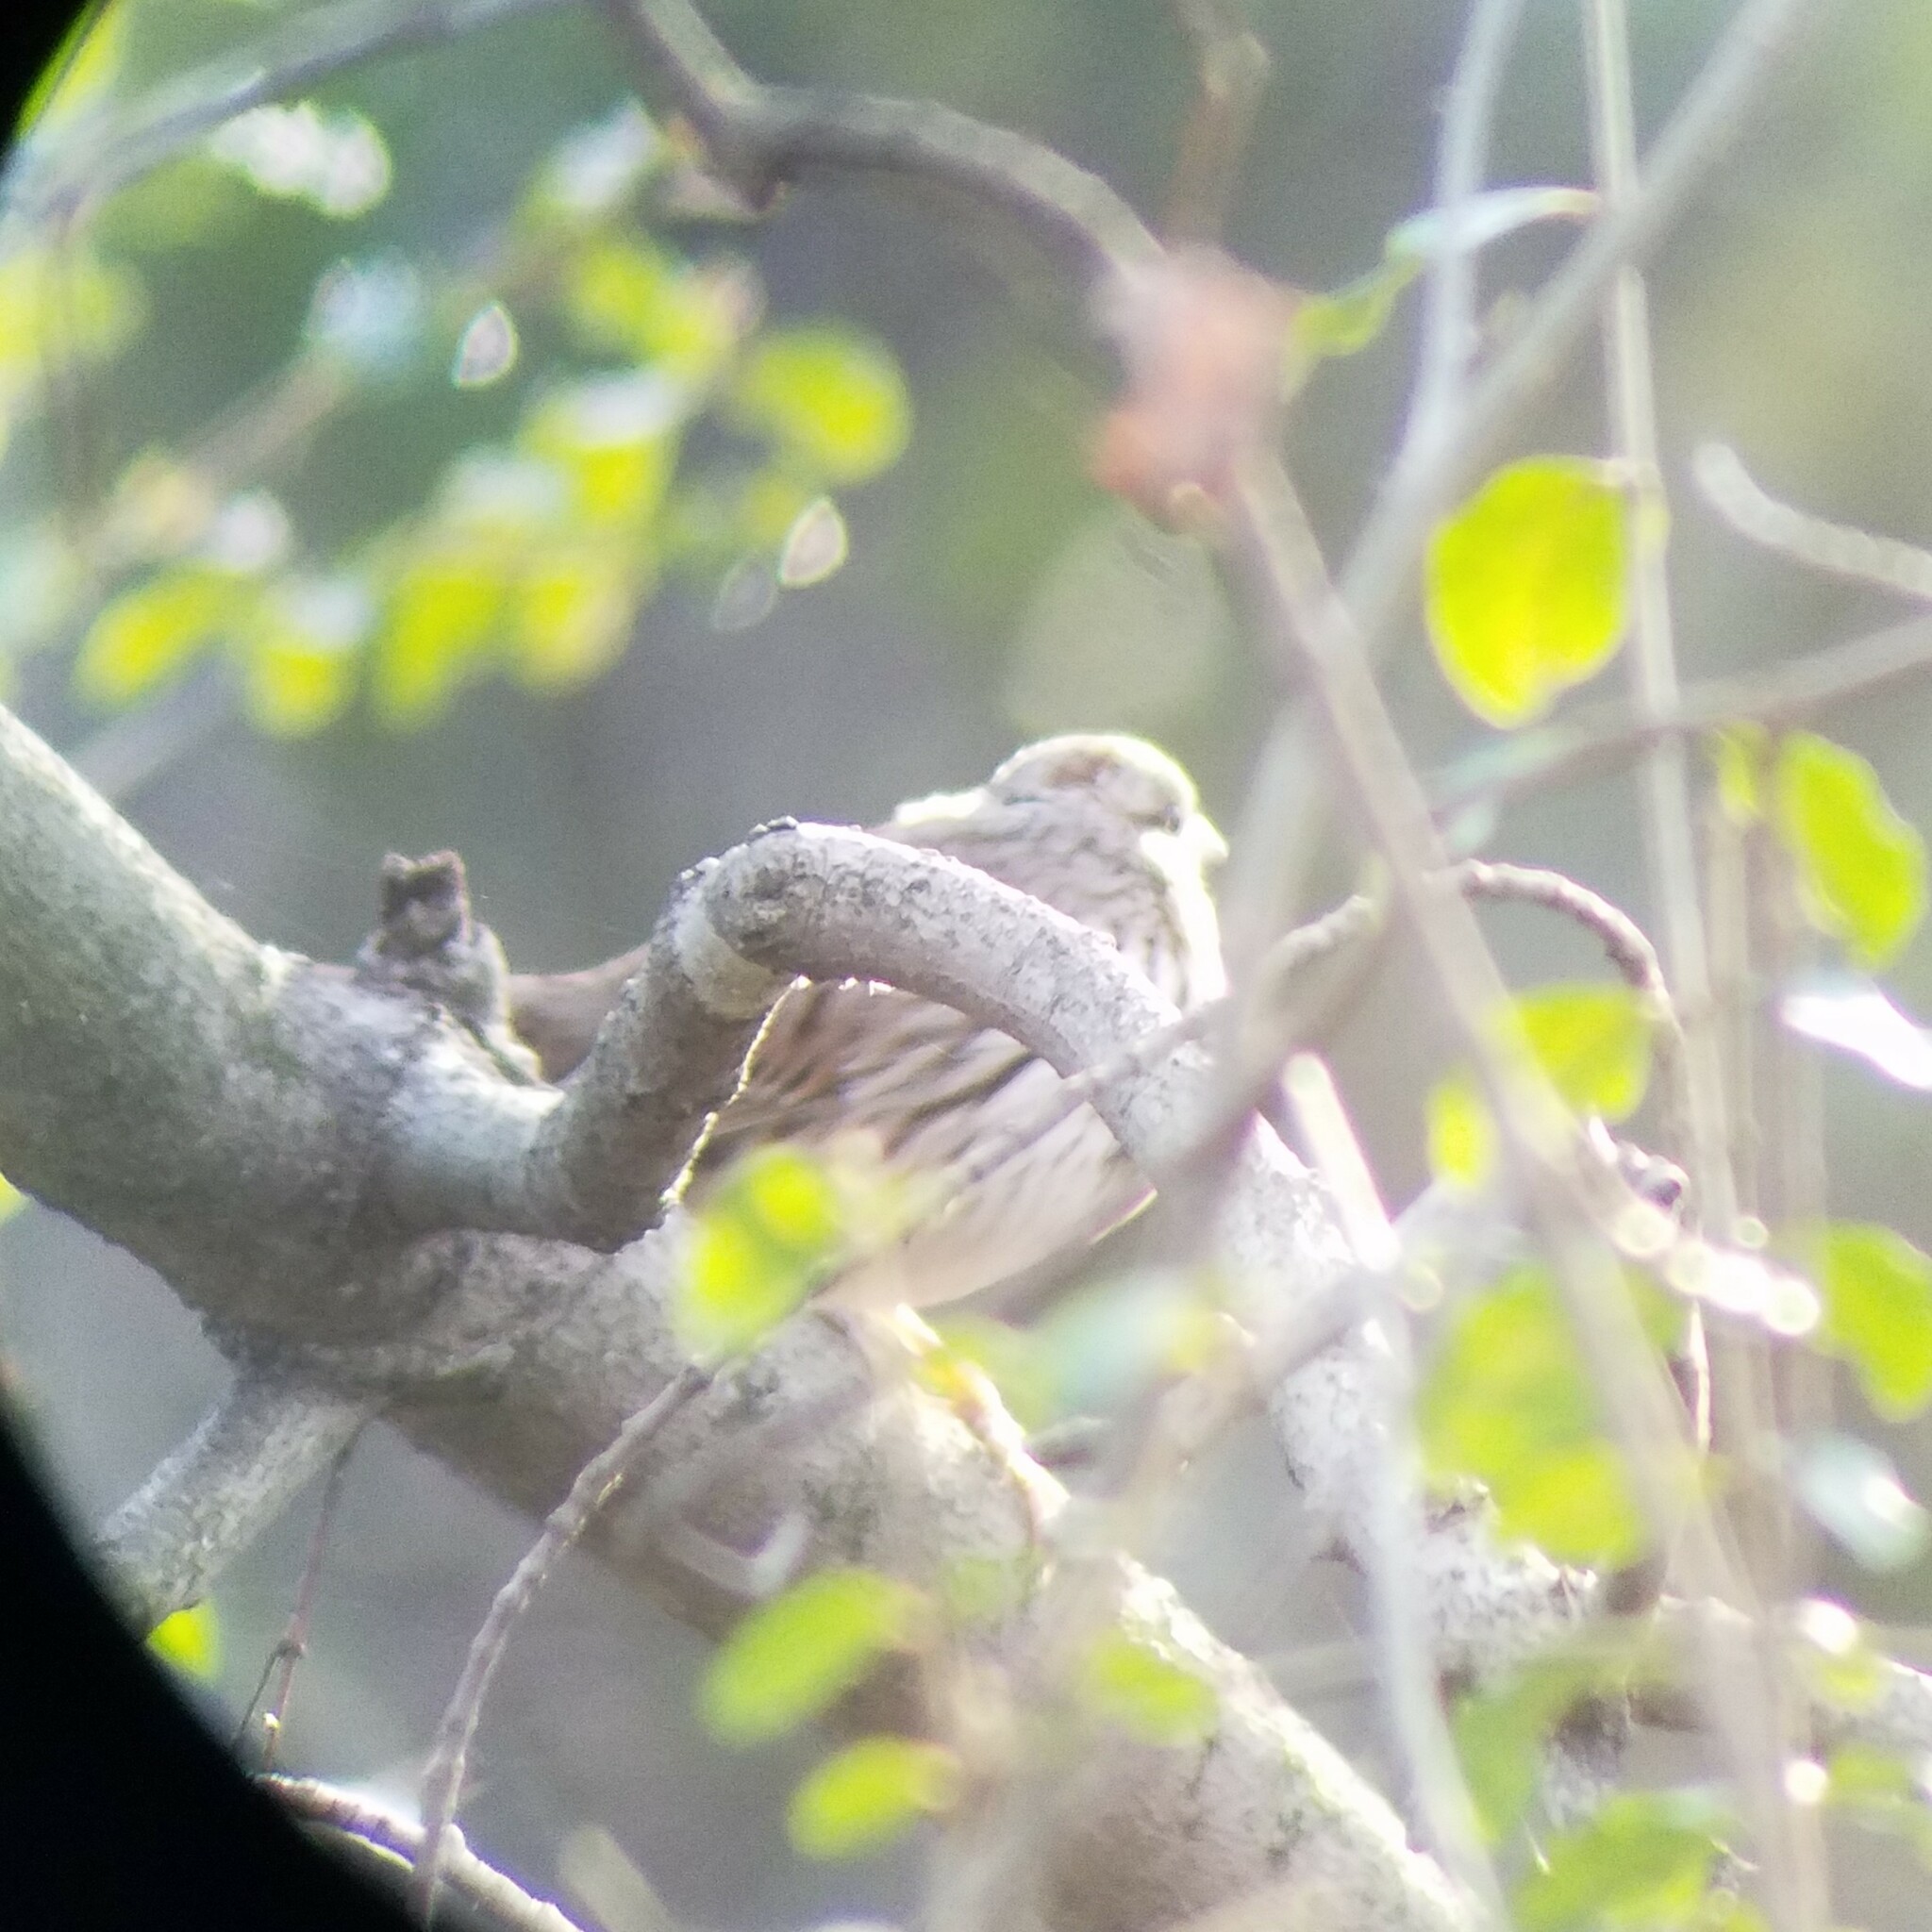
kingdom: Animalia
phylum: Chordata
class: Aves
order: Passeriformes
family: Passerellidae
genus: Melospiza
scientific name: Melospiza melodia
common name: Song sparrow
